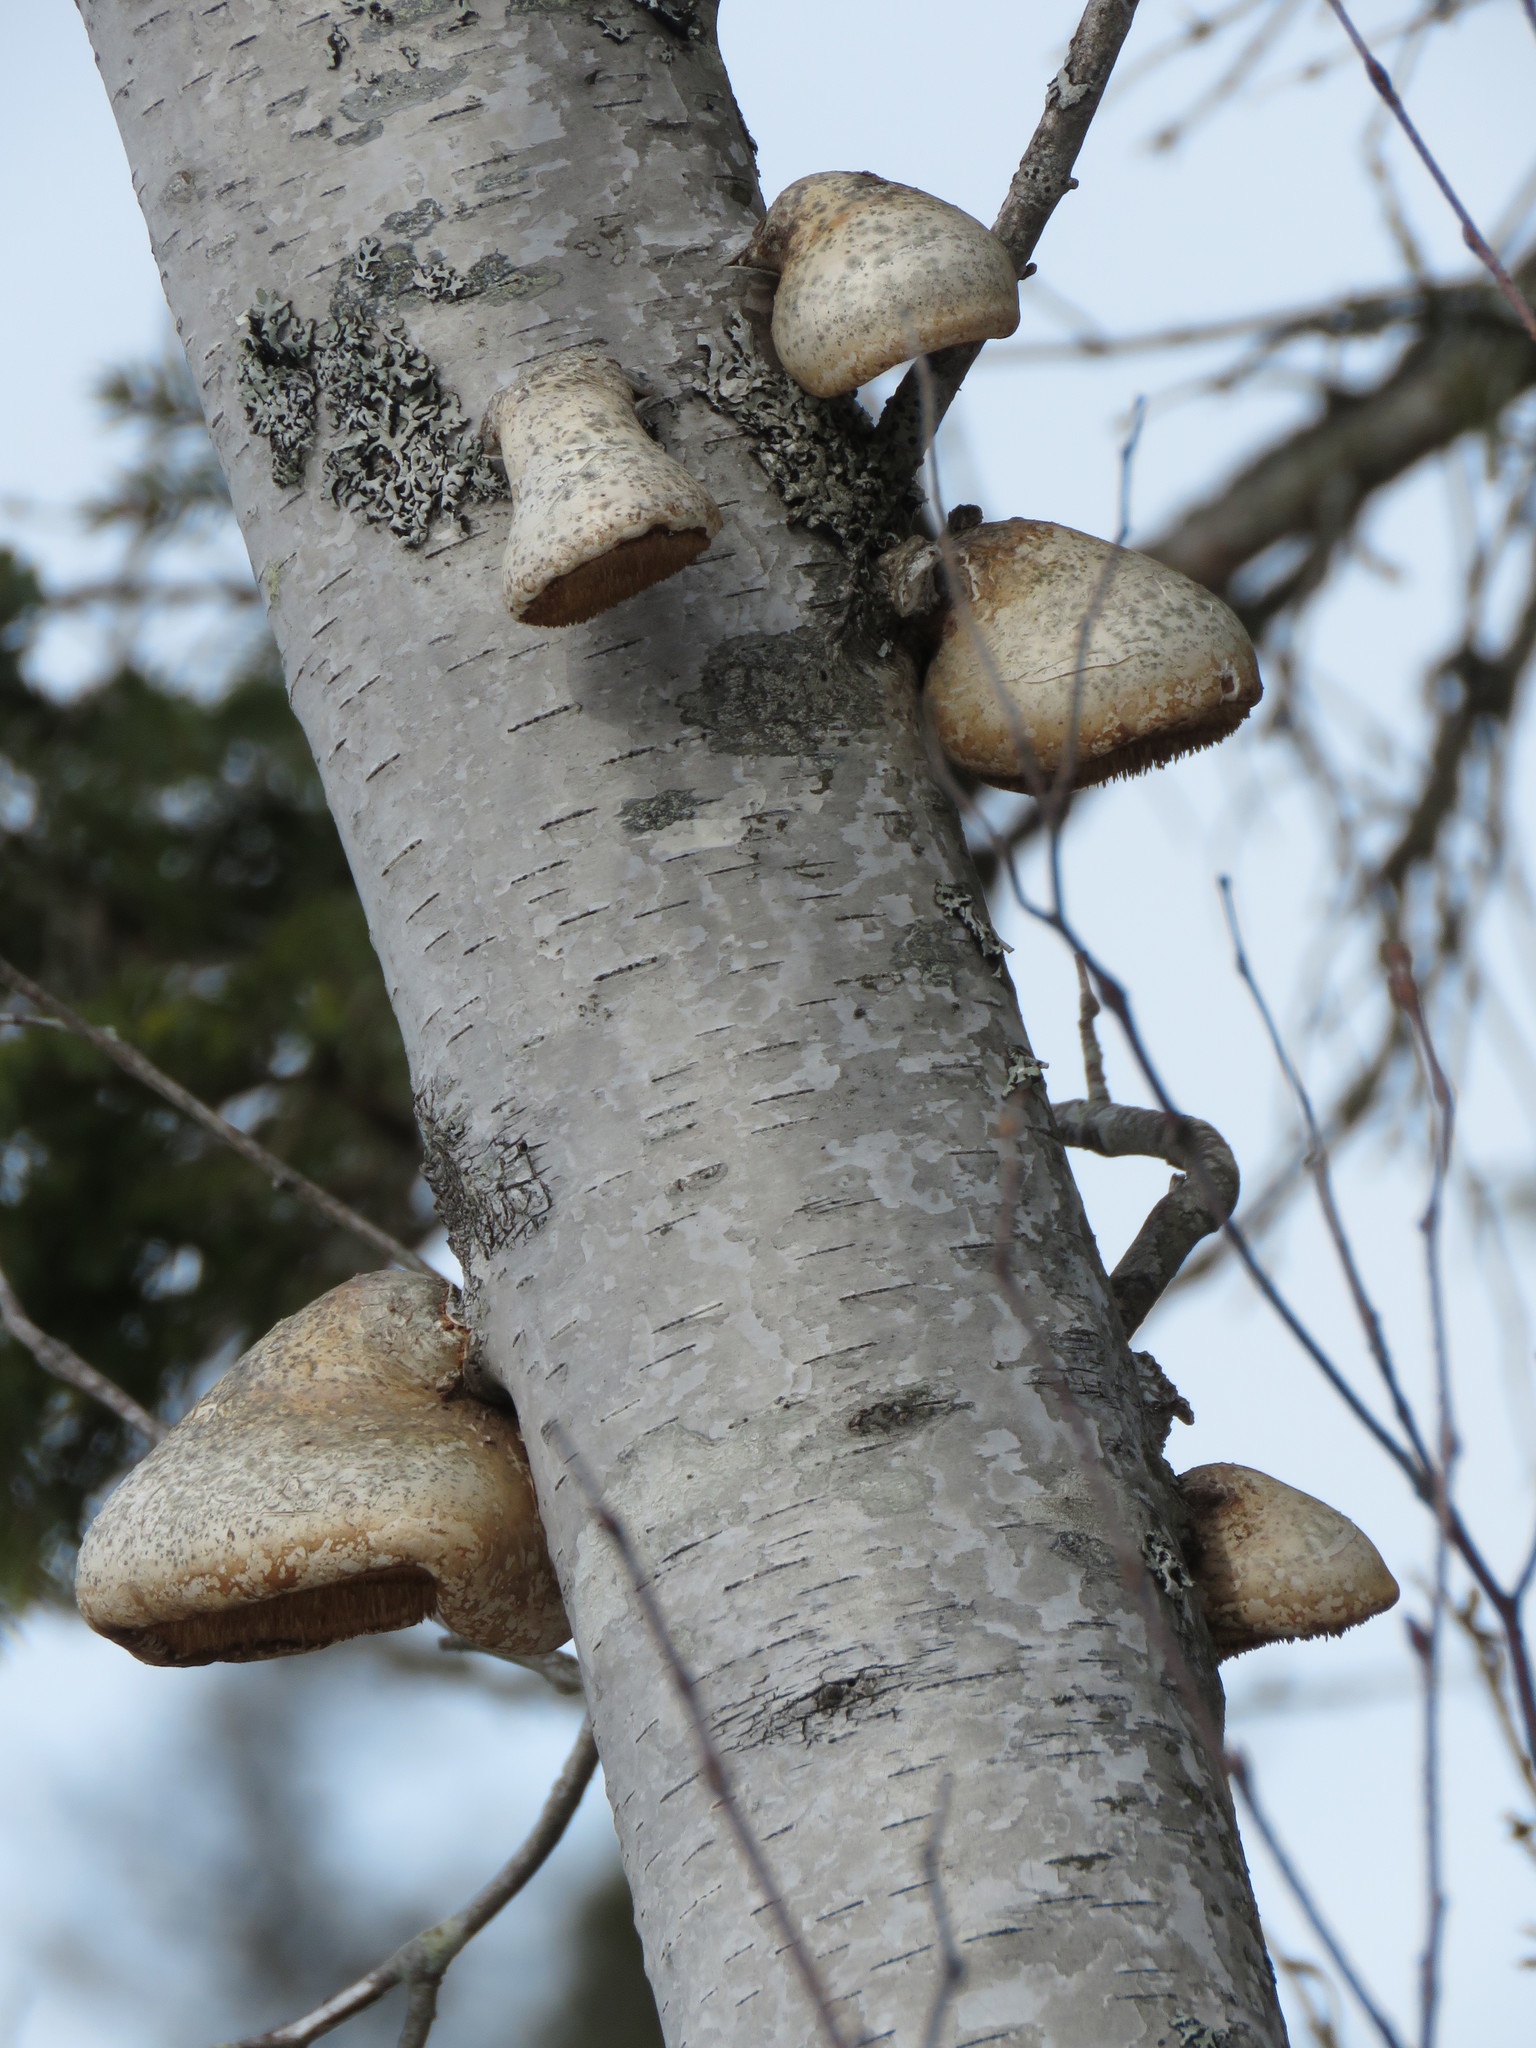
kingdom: Fungi
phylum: Basidiomycota
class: Agaricomycetes
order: Polyporales
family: Fomitopsidaceae
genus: Fomitopsis
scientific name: Fomitopsis betulina
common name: Birch polypore
